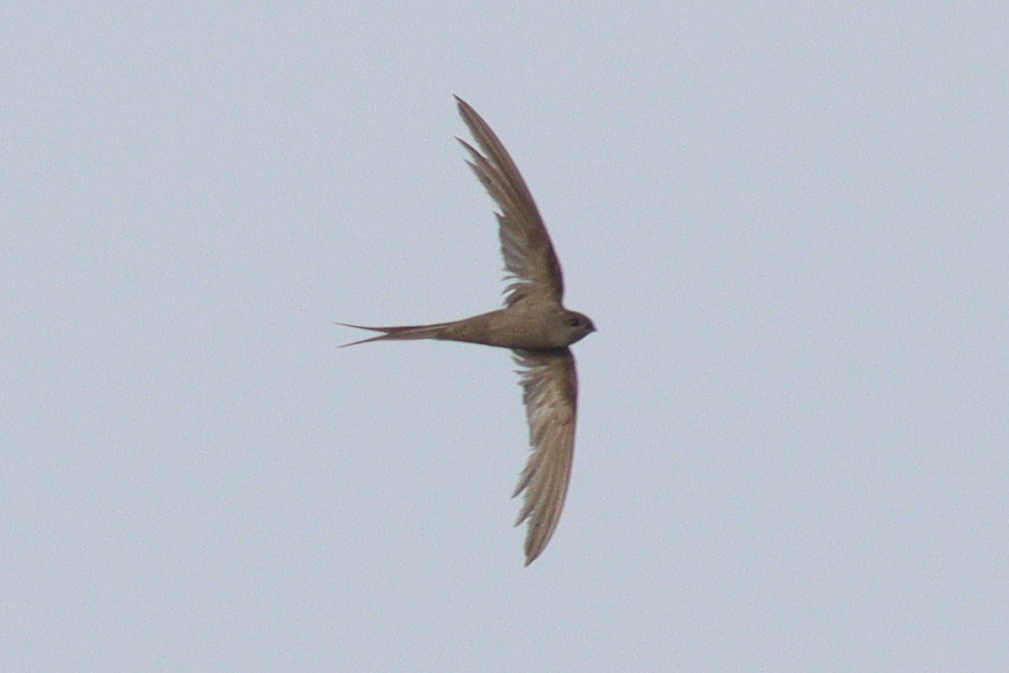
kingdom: Animalia
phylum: Chordata
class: Aves
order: Apodiformes
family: Apodidae
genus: Cypsiurus
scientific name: Cypsiurus parvus
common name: African palm swift
